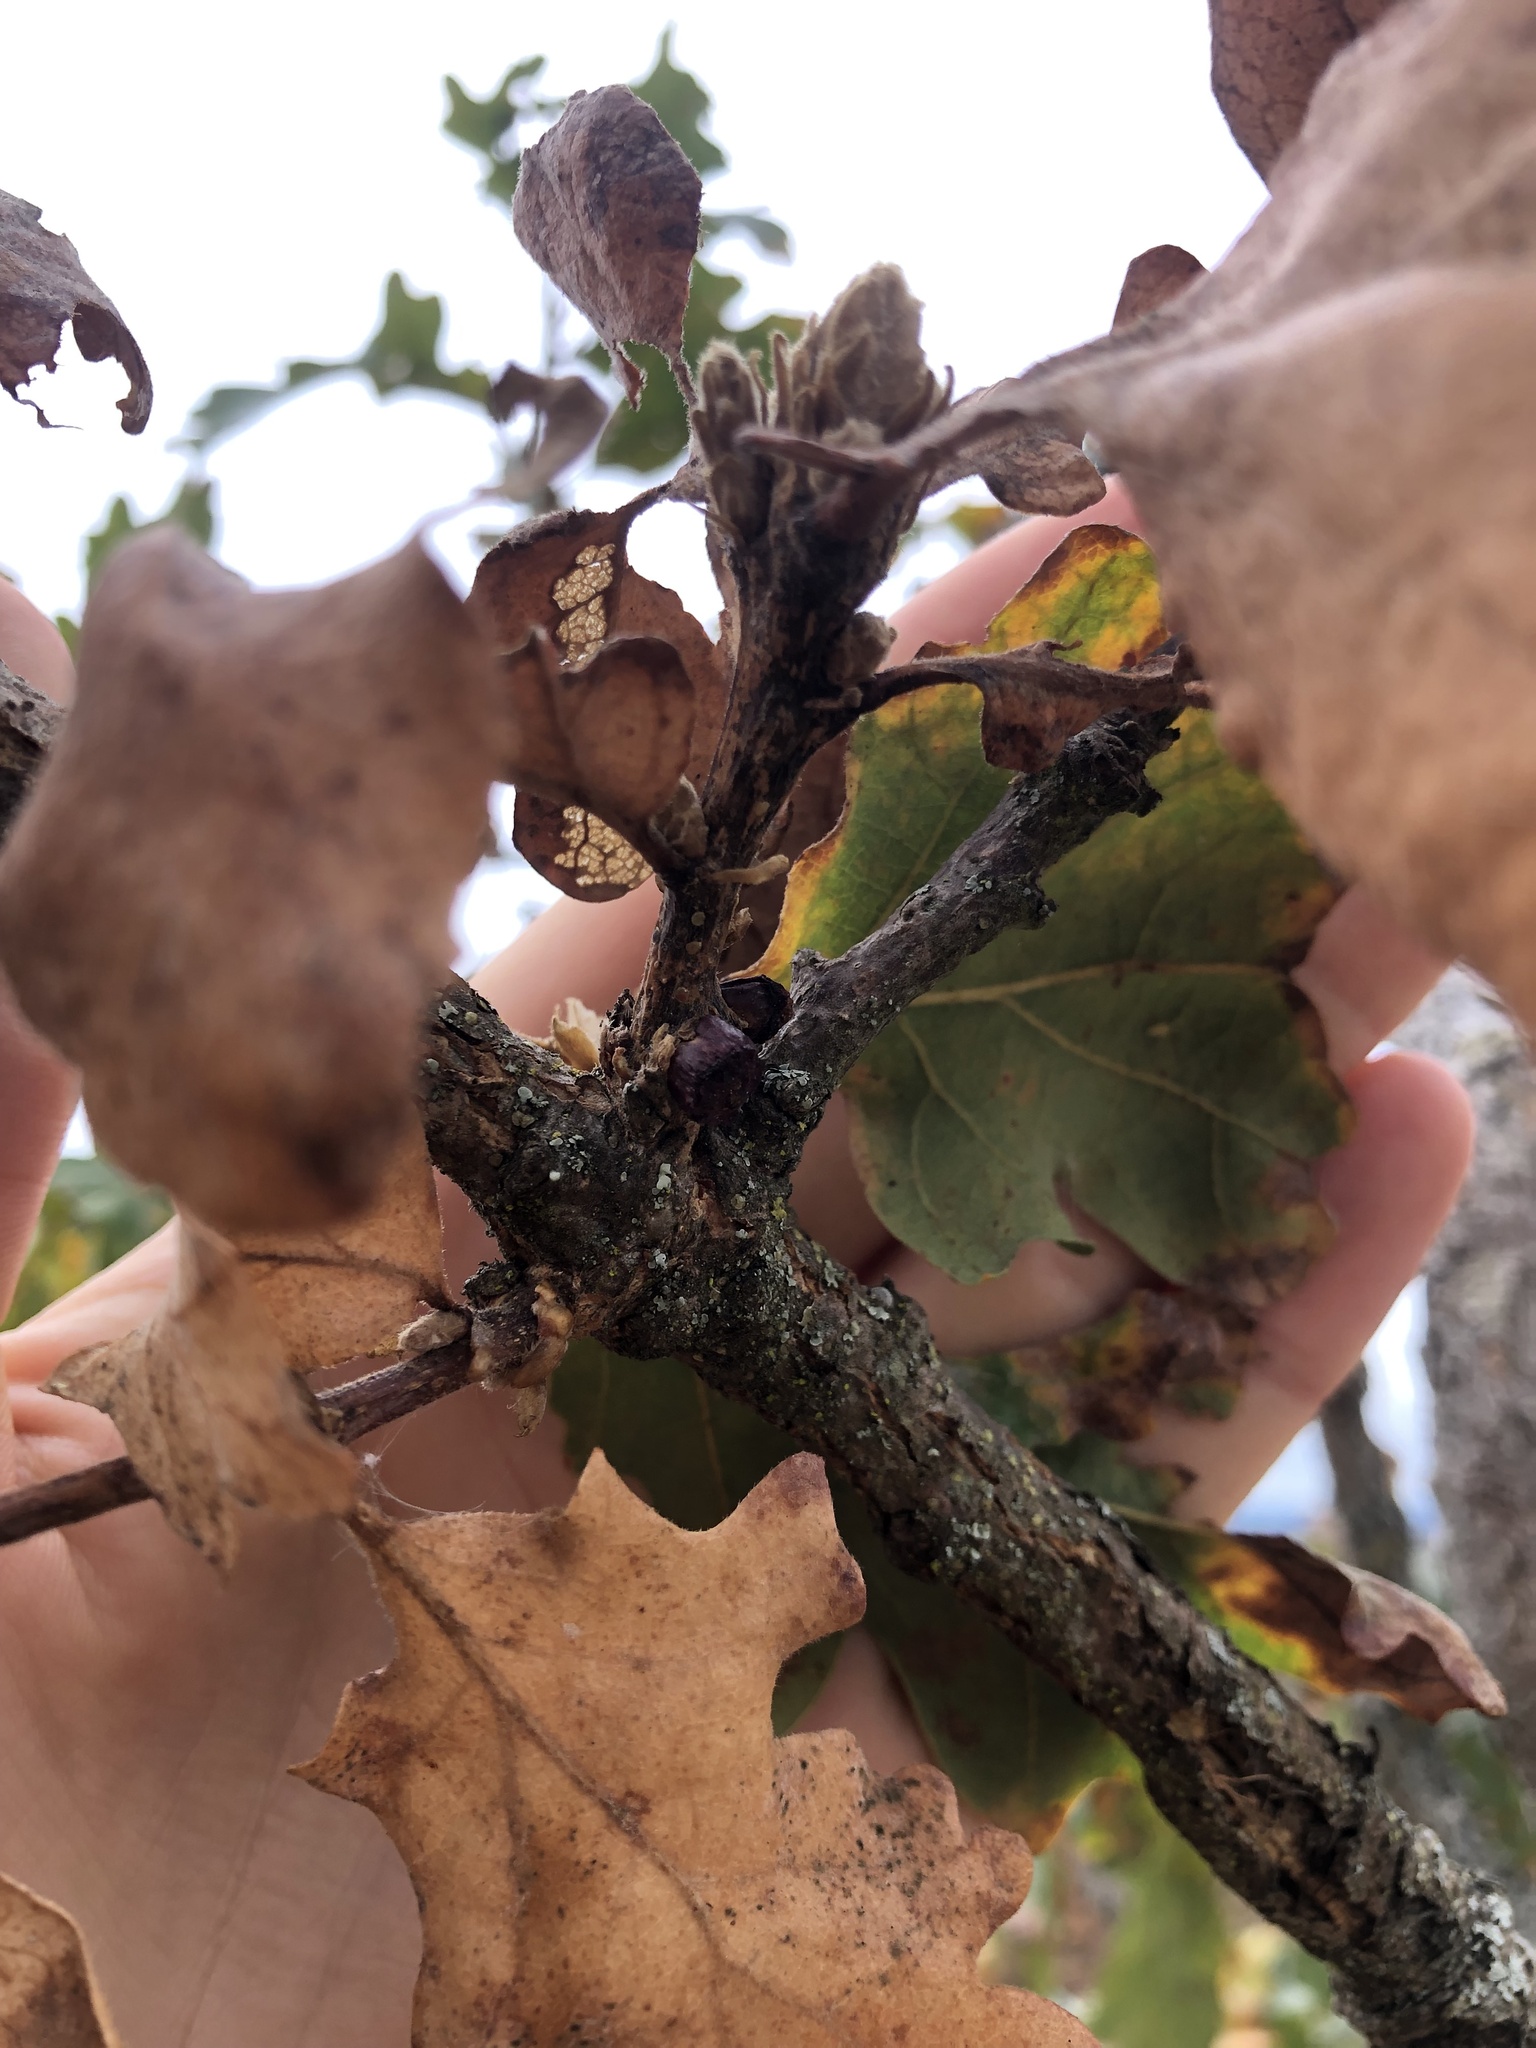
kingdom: Animalia
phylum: Arthropoda
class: Insecta
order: Hymenoptera
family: Cynipidae
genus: Disholcaspis
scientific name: Disholcaspis
